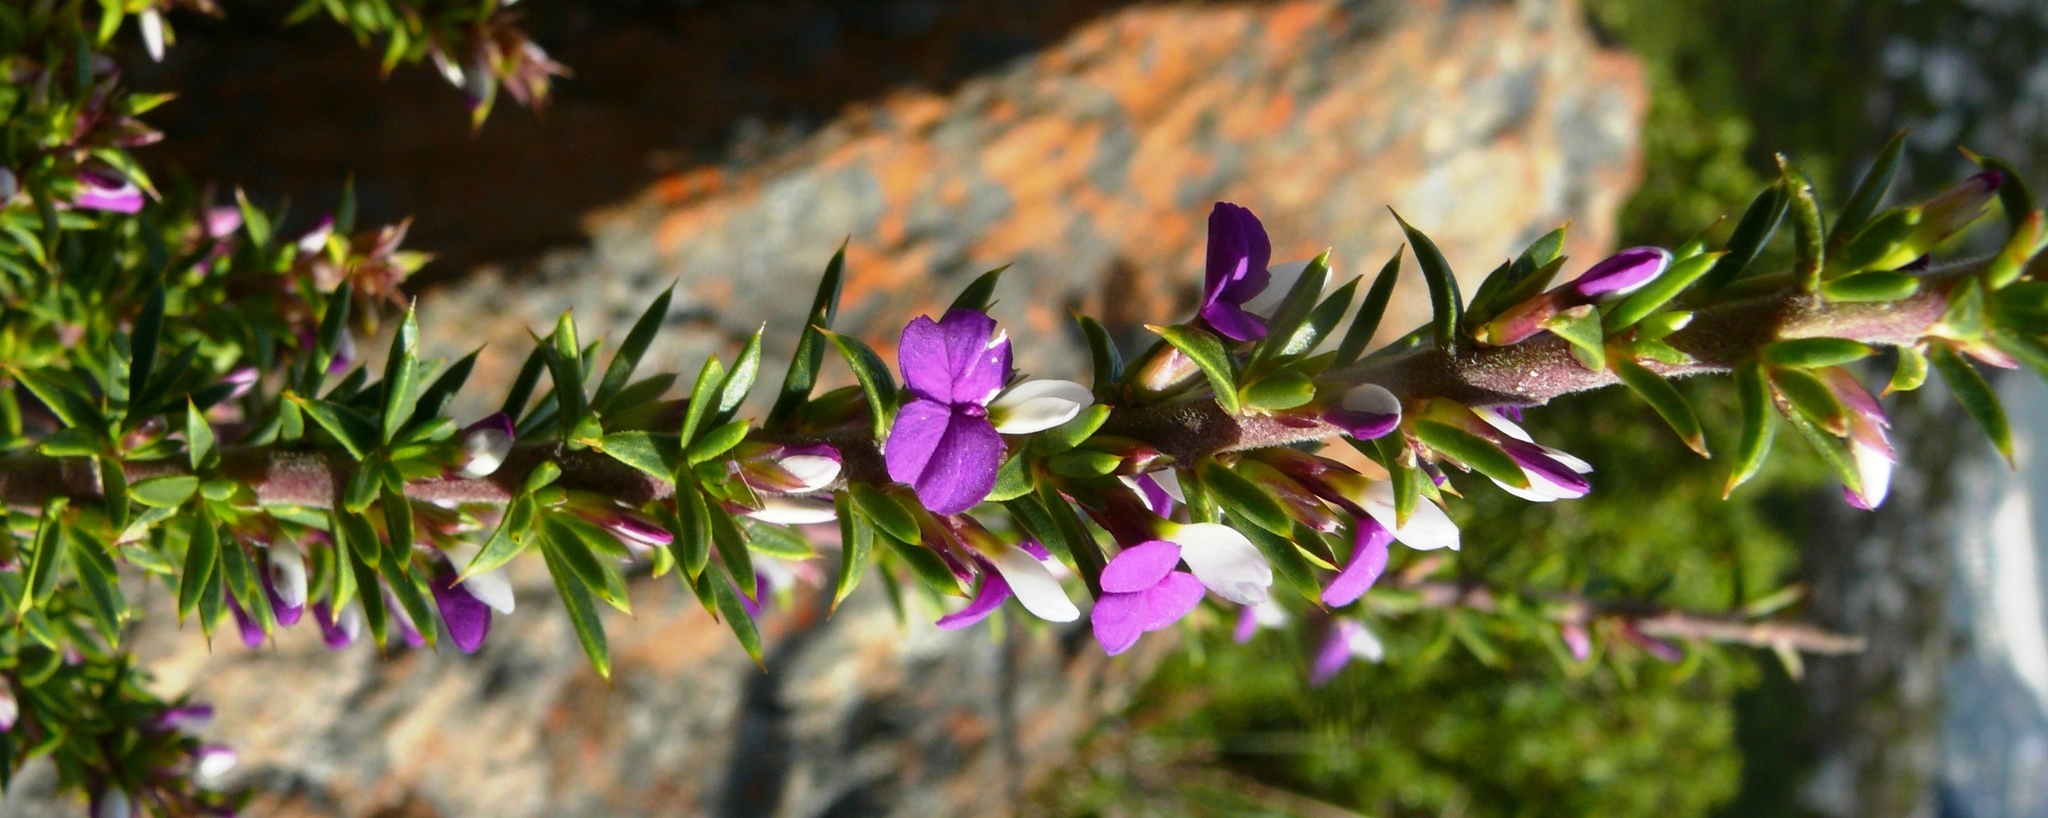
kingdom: Plantae
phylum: Tracheophyta
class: Magnoliopsida
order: Fabales
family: Polygalaceae
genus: Muraltia
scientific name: Muraltia heisteria
